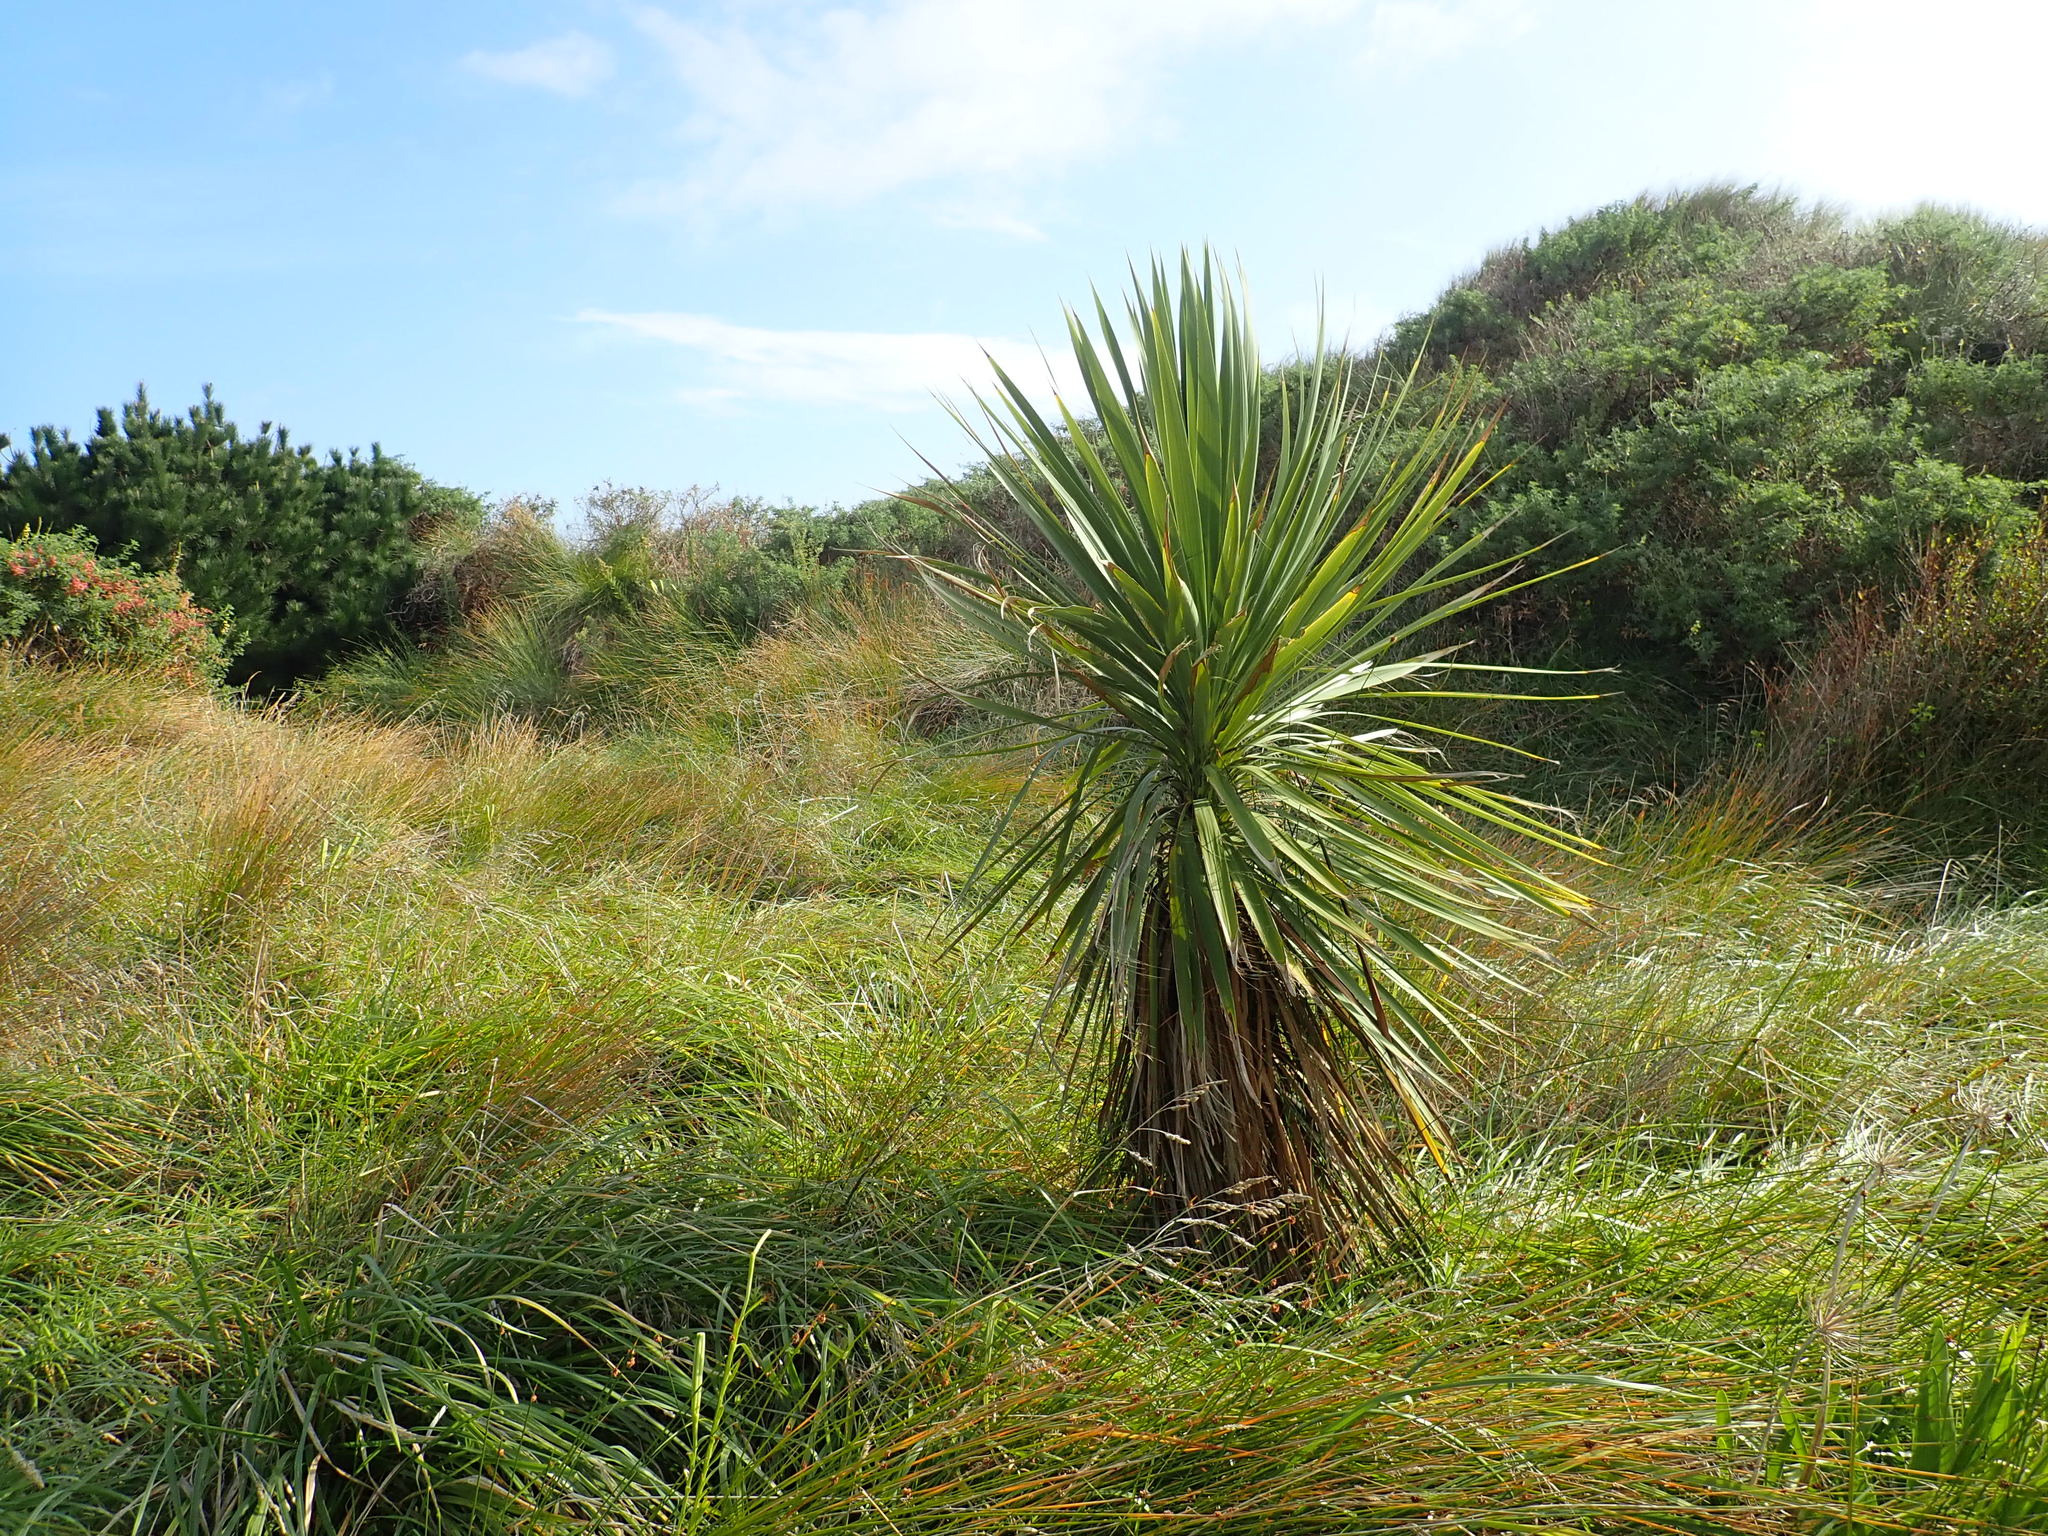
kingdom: Plantae
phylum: Tracheophyta
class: Liliopsida
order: Asparagales
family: Asparagaceae
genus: Cordyline
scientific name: Cordyline australis
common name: Cabbage-palm
